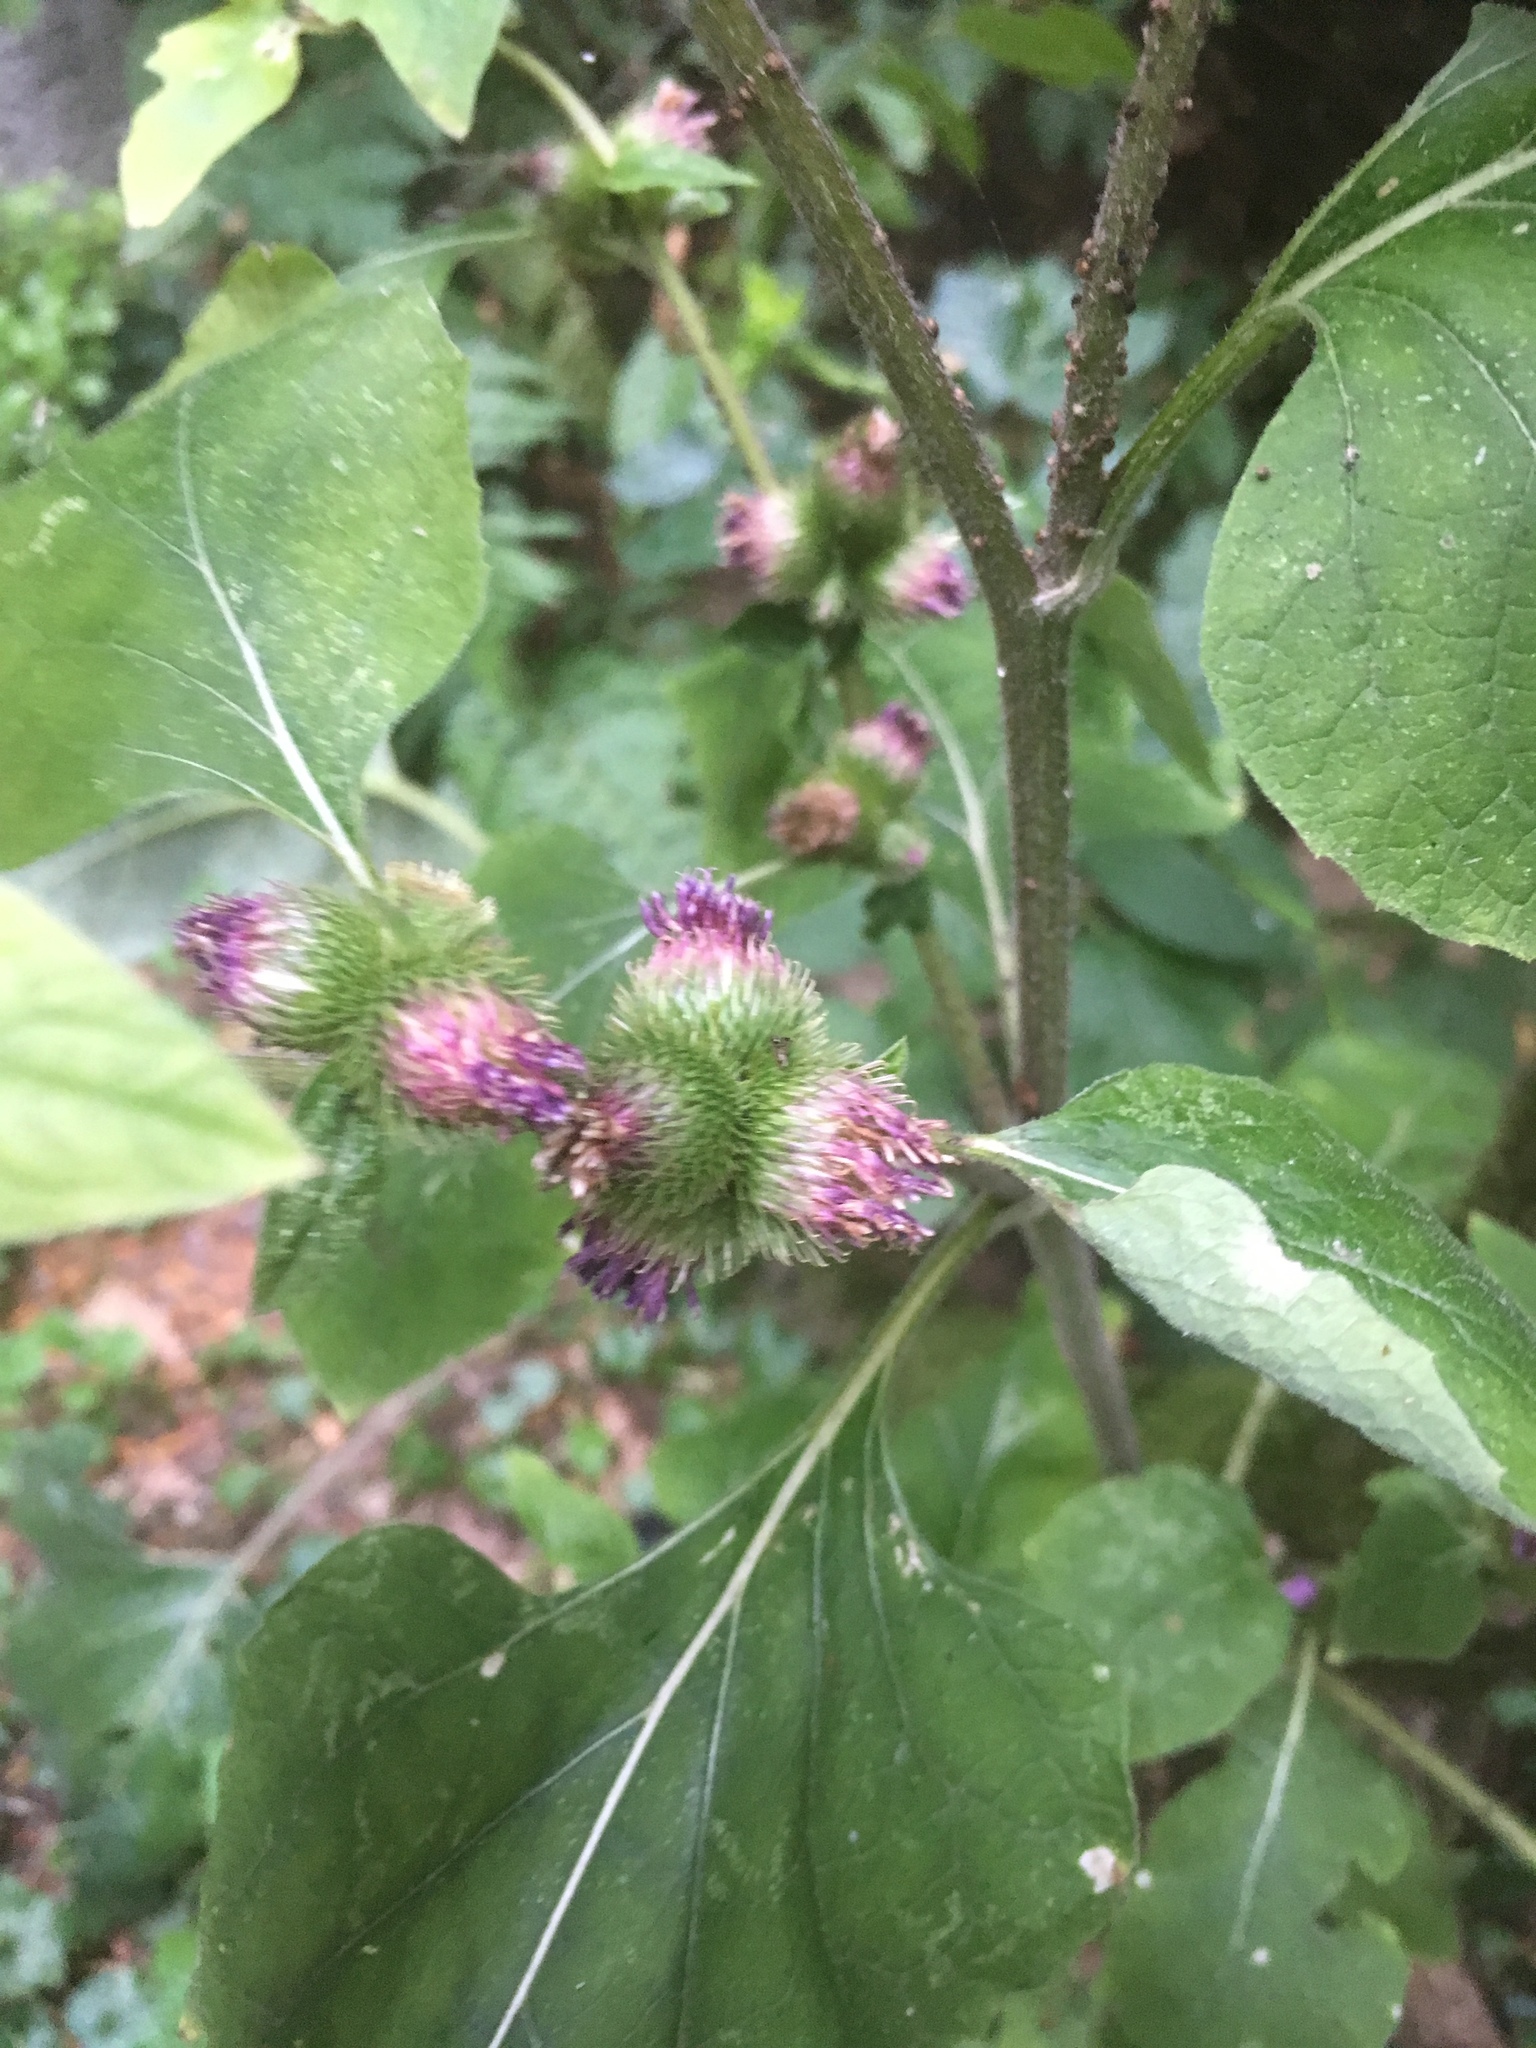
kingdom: Plantae
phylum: Tracheophyta
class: Magnoliopsida
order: Asterales
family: Asteraceae
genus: Arctium
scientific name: Arctium minus
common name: Lesser burdock
